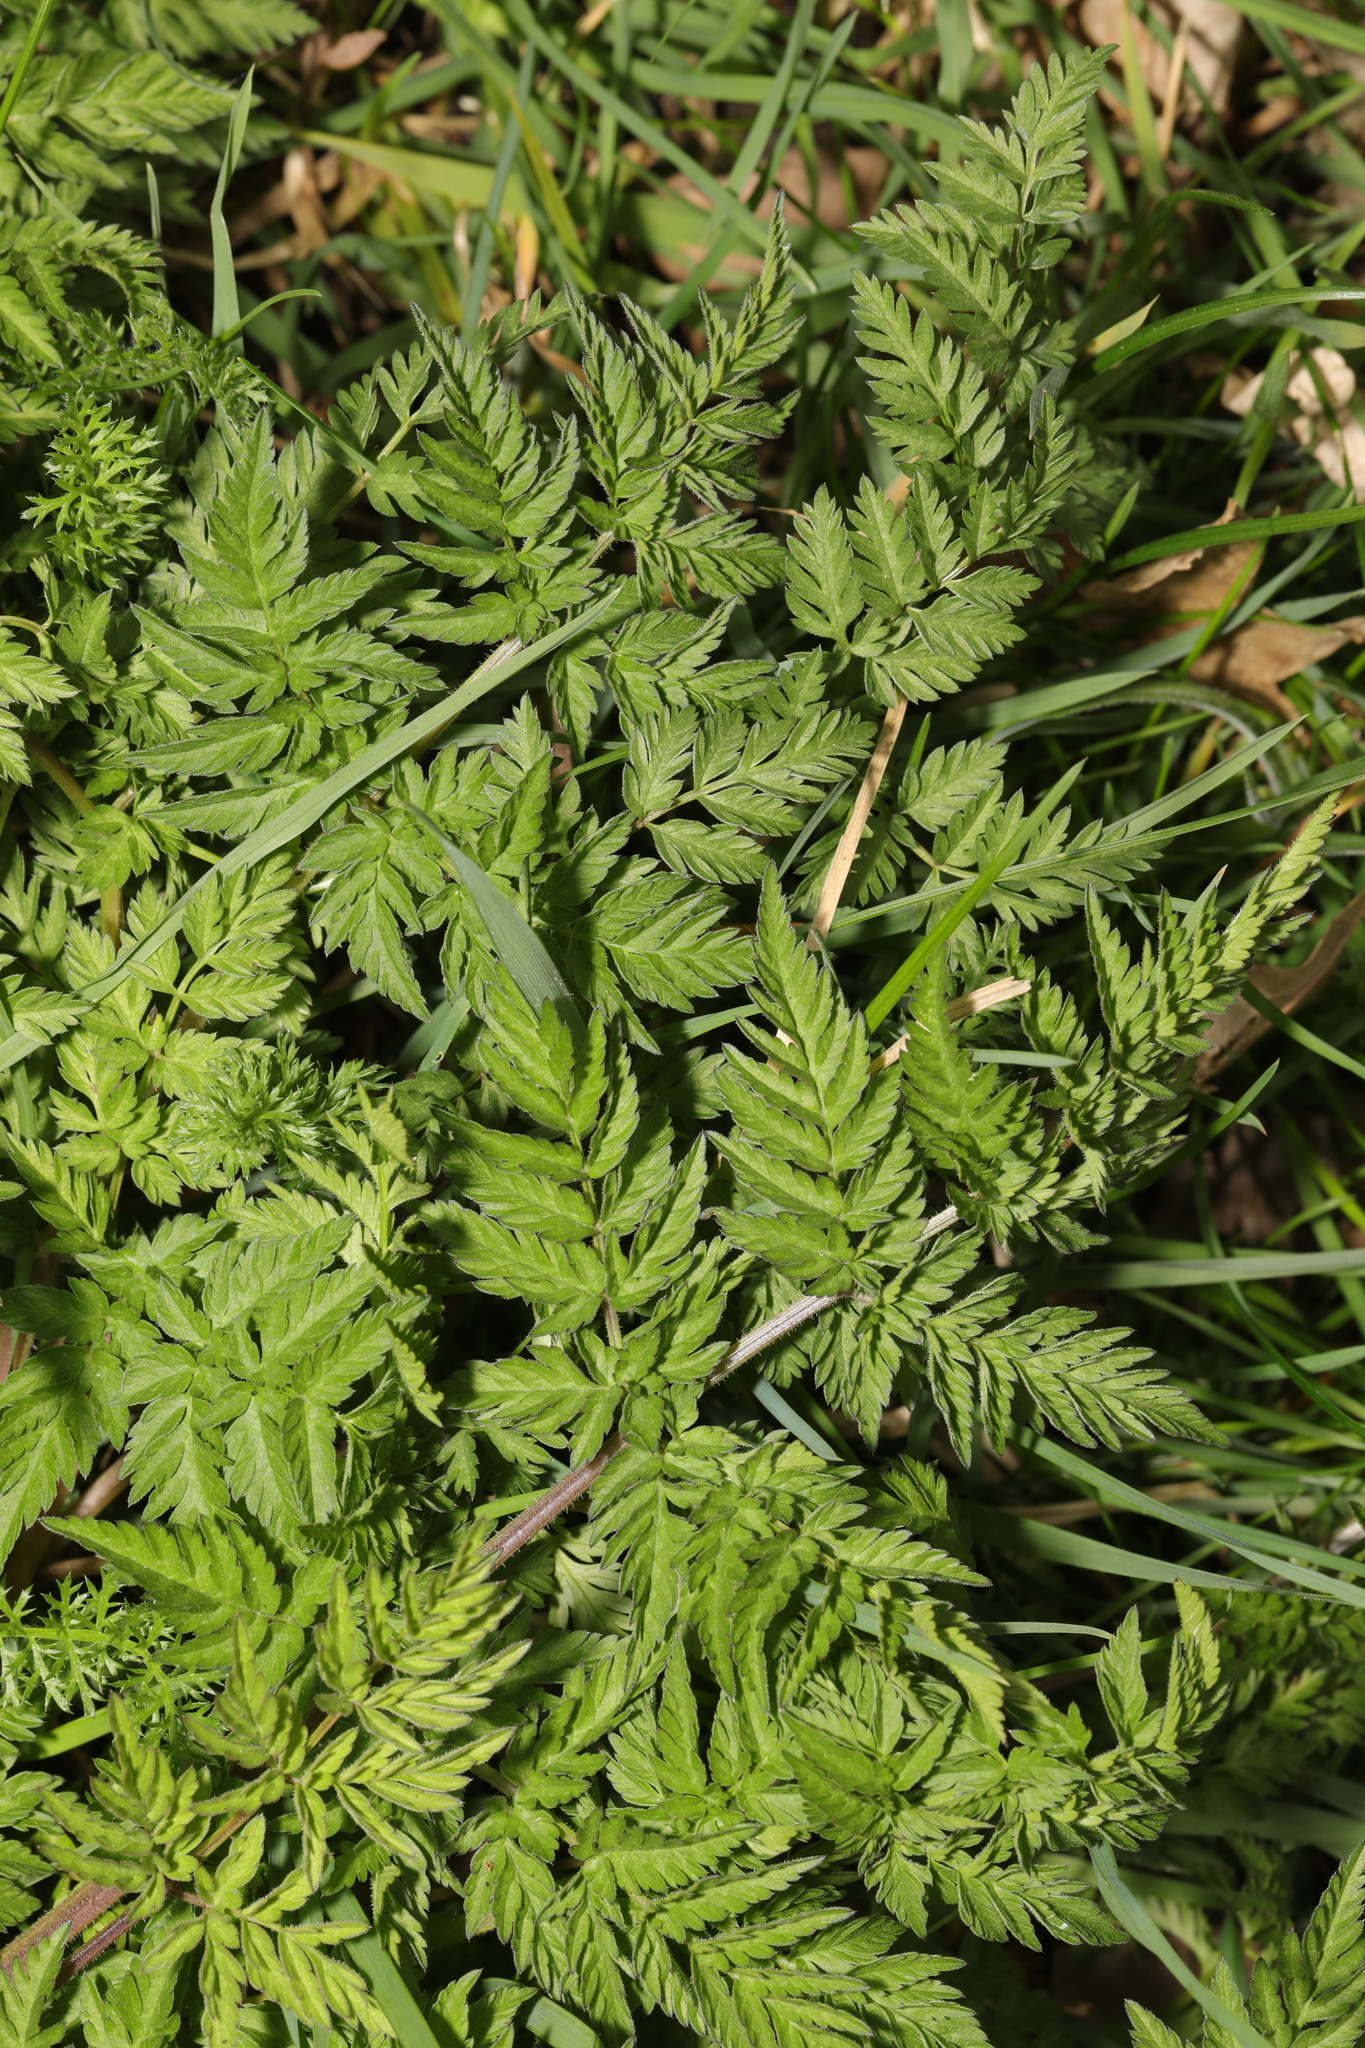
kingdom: Plantae
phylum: Tracheophyta
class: Magnoliopsida
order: Apiales
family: Apiaceae
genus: Anthriscus
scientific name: Anthriscus sylvestris
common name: Cow parsley
